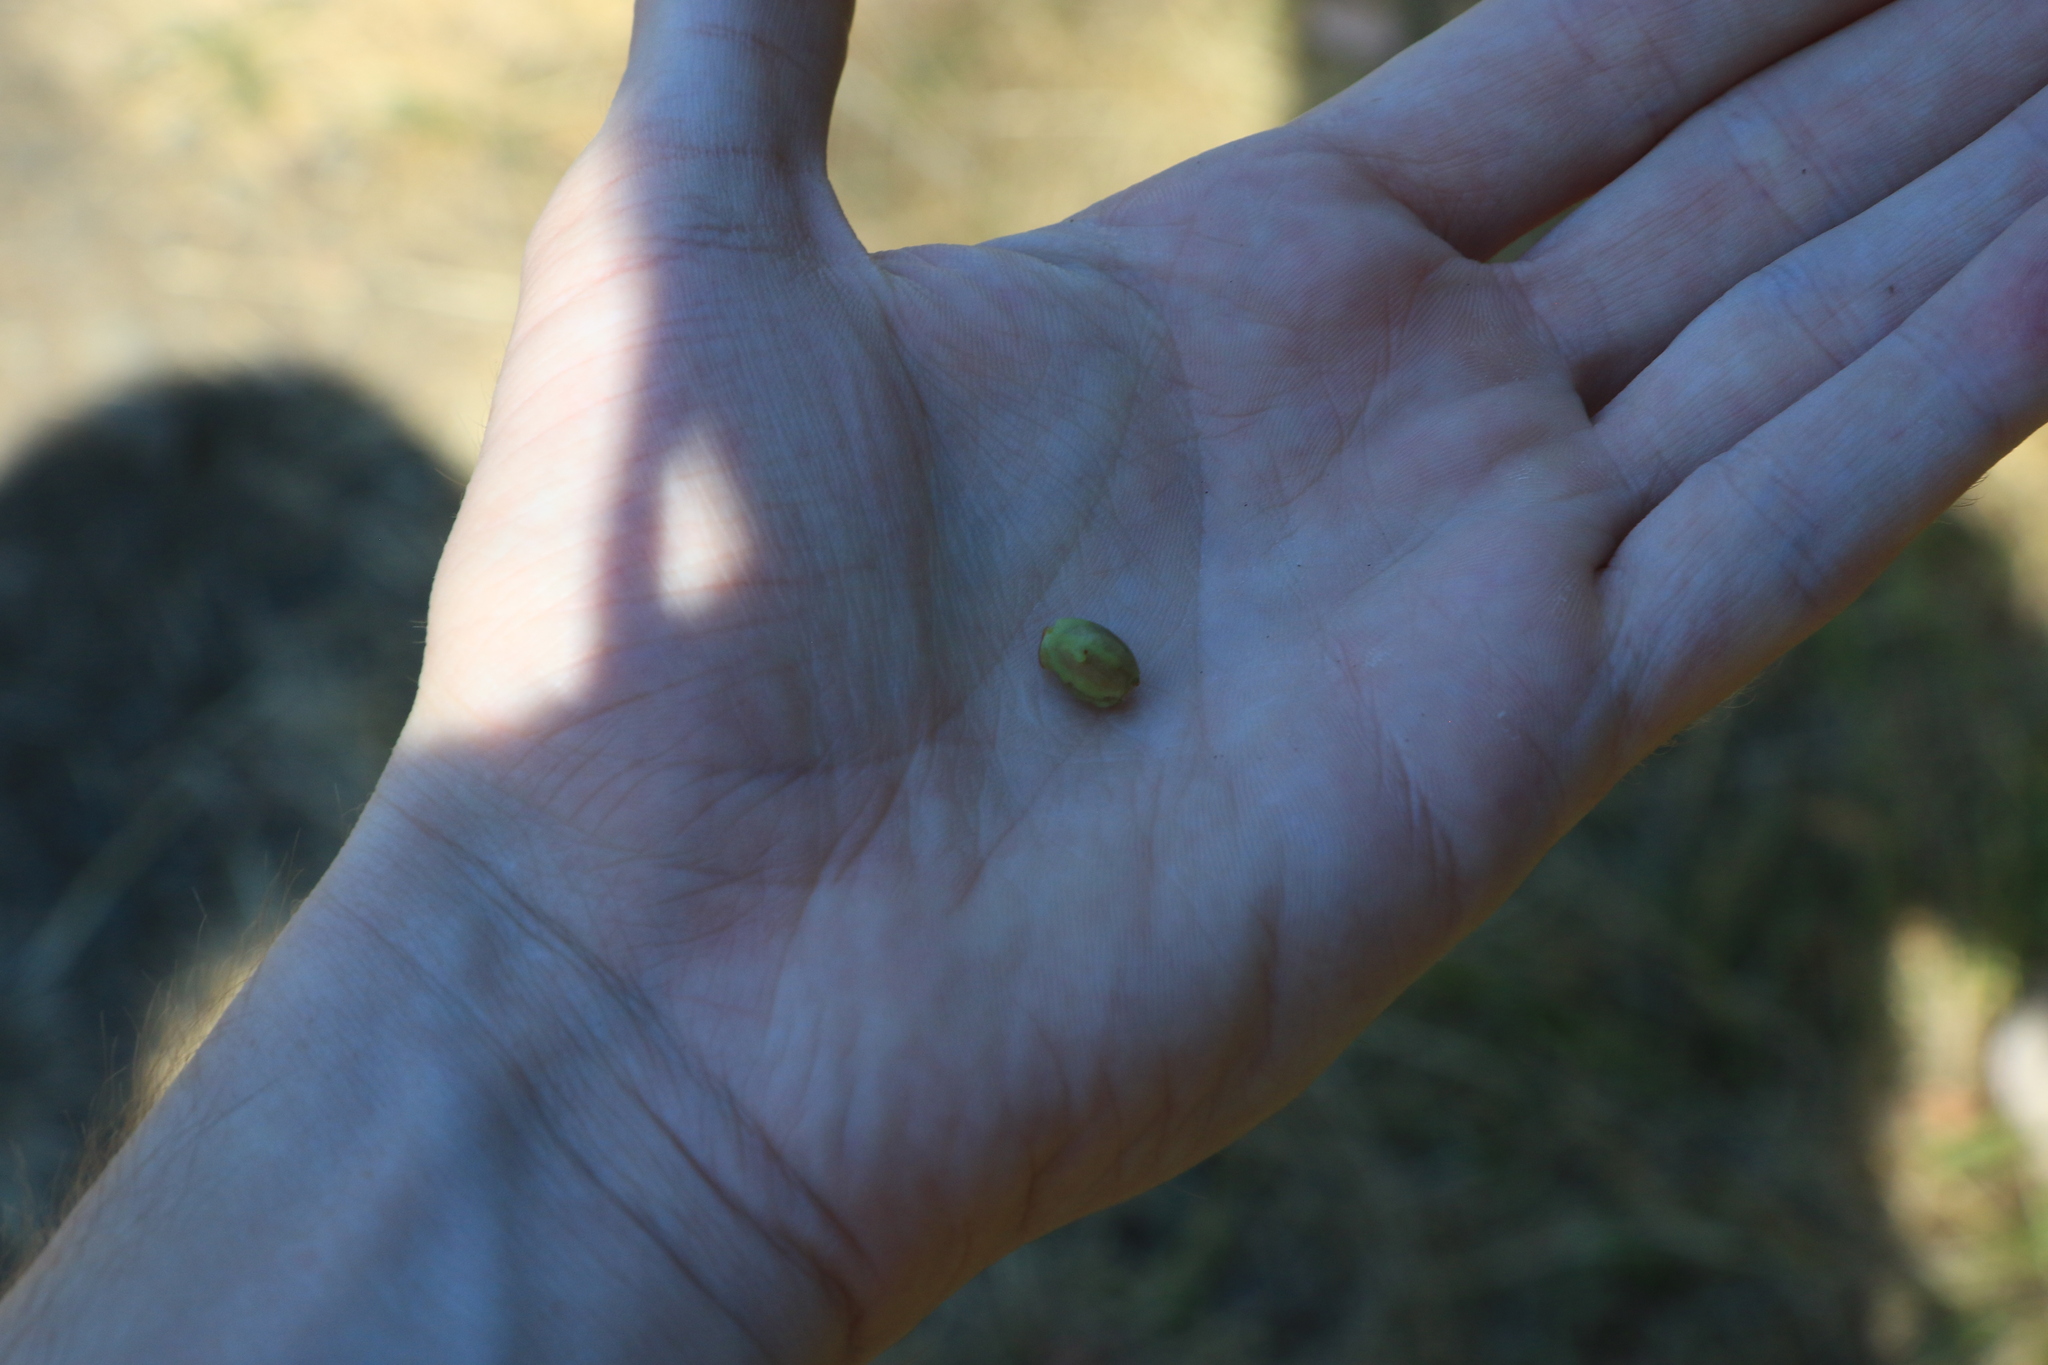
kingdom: Plantae
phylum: Tracheophyta
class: Magnoliopsida
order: Rosales
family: Rosaceae
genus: Crataegus
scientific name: Crataegus monogyna
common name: Hawthorn
